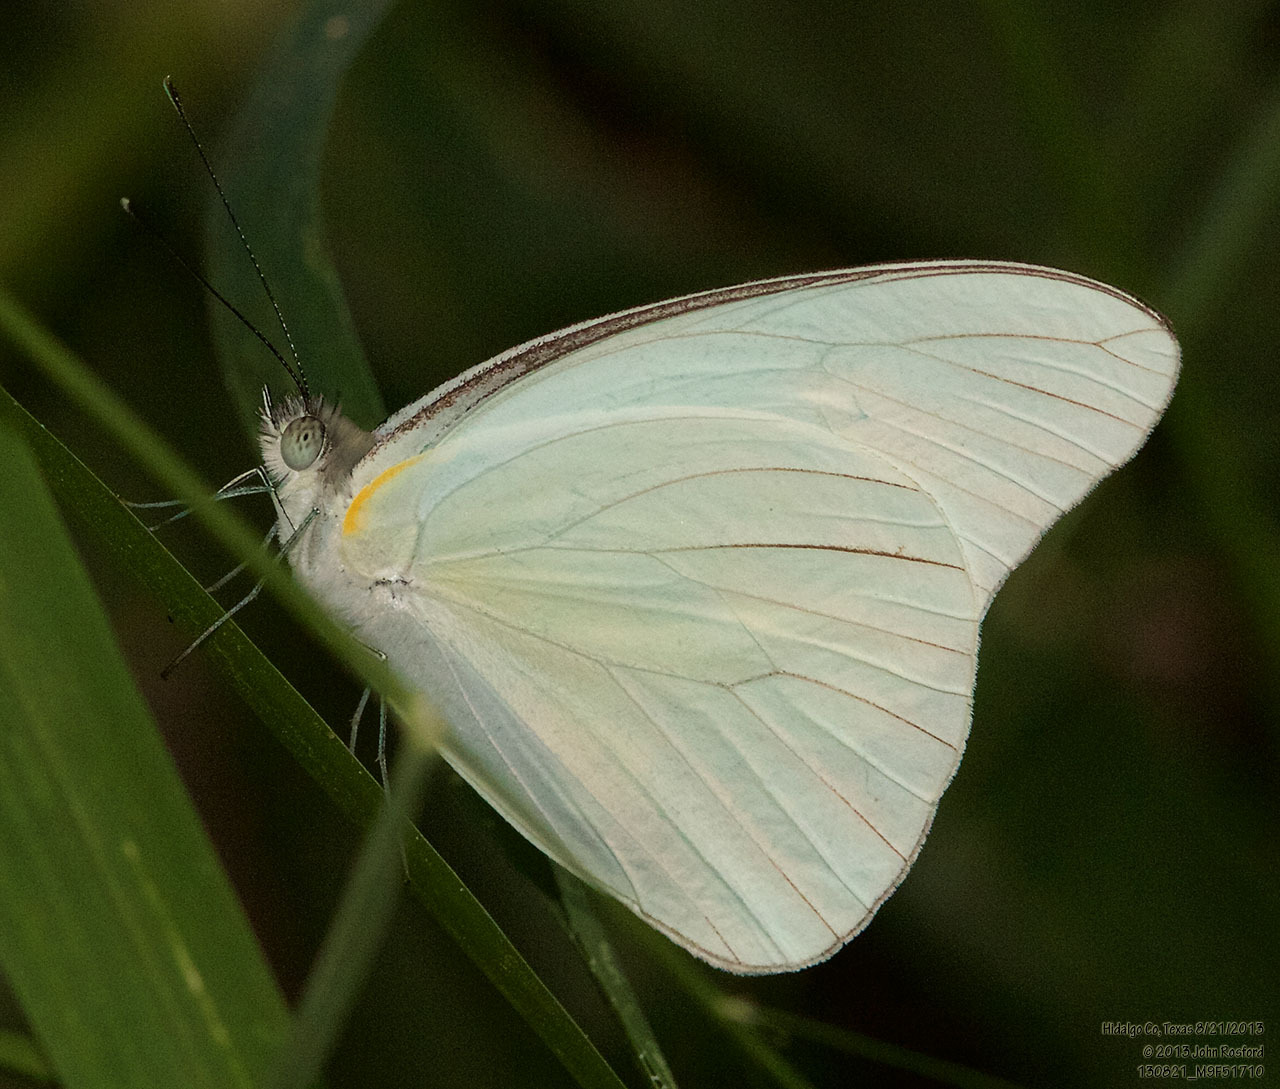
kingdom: Animalia
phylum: Arthropoda
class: Insecta
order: Lepidoptera
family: Pieridae
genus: Glutophrissa
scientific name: Glutophrissa drusilla
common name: Florida white
